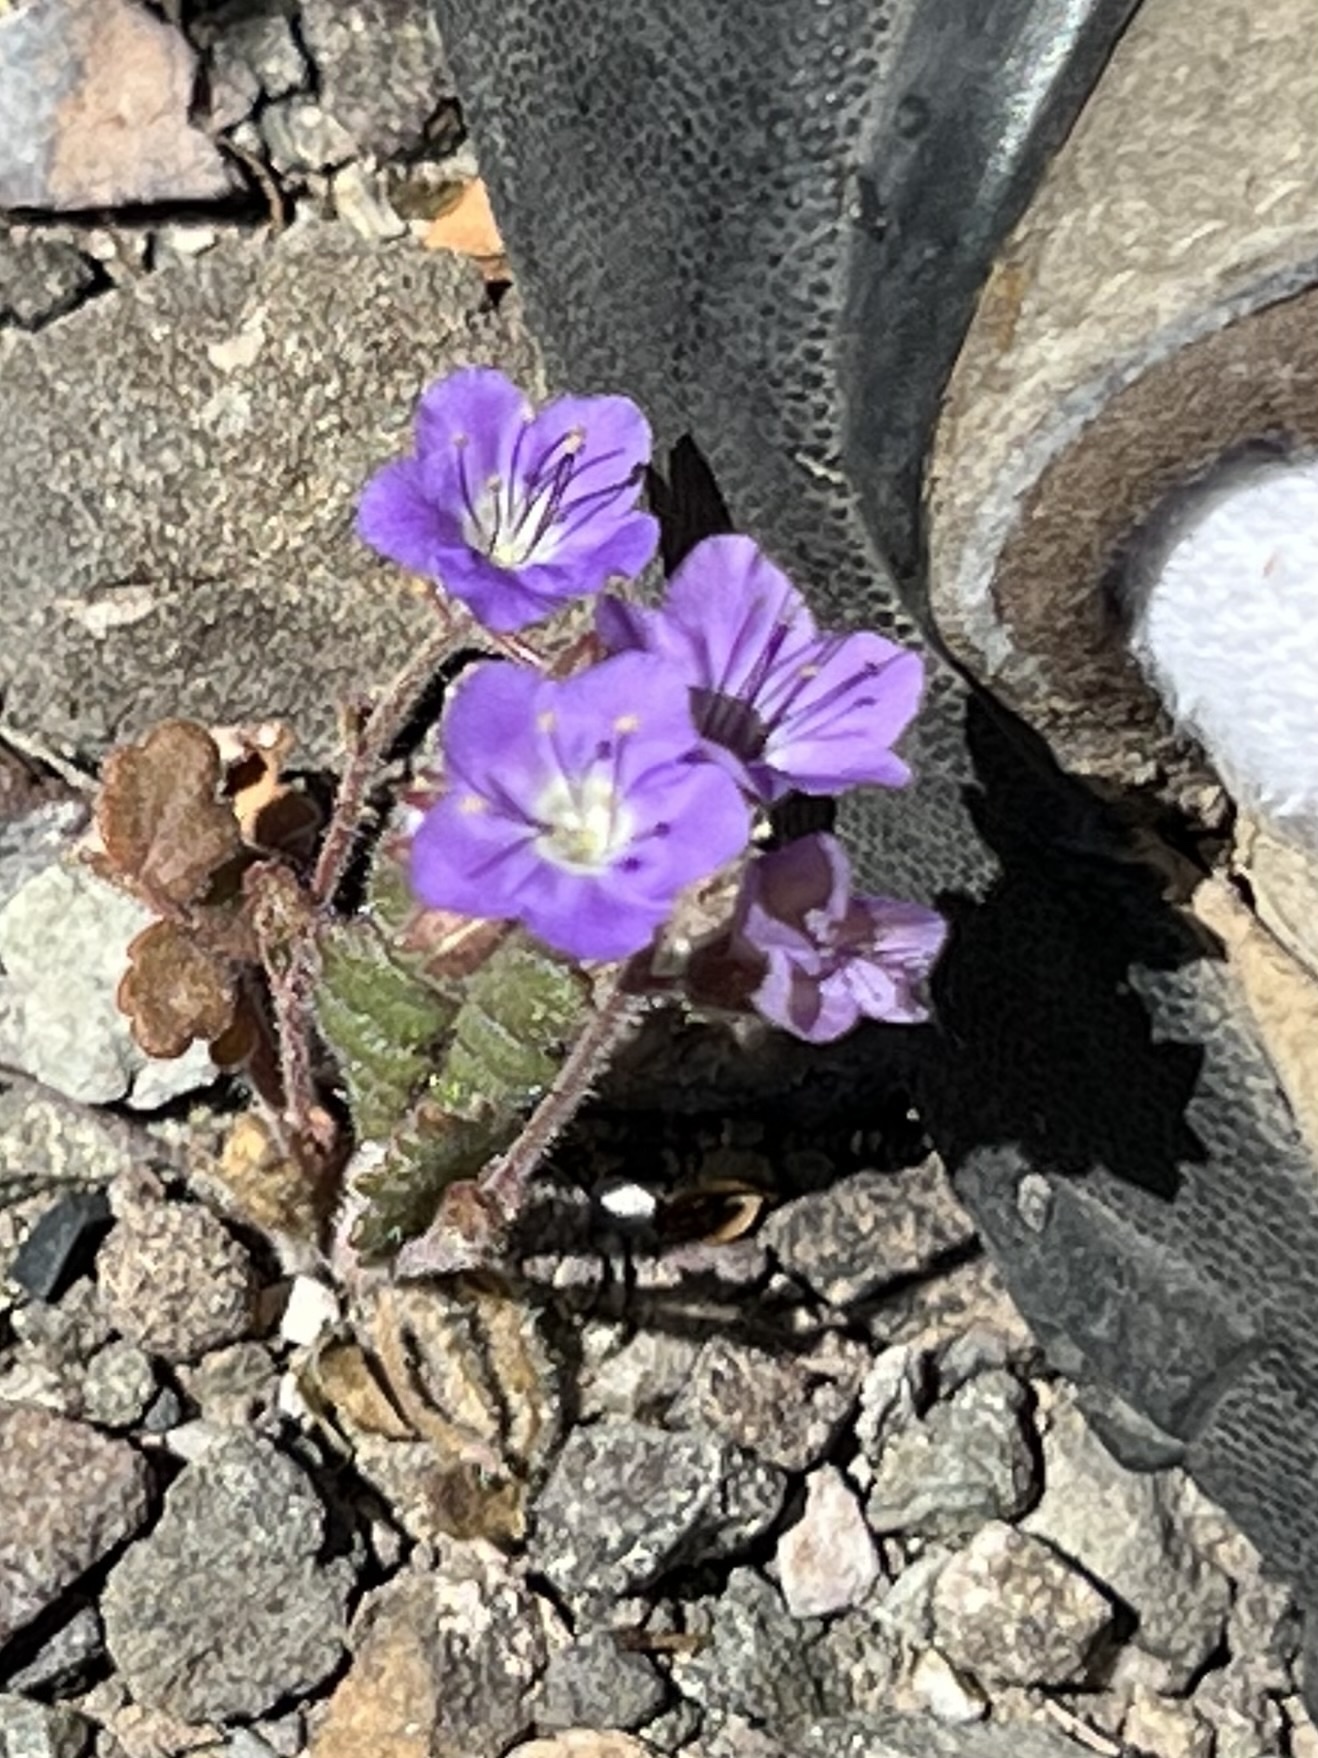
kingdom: Plantae
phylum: Tracheophyta
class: Magnoliopsida
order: Boraginales
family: Hydrophyllaceae
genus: Phacelia
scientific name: Phacelia crenulata
